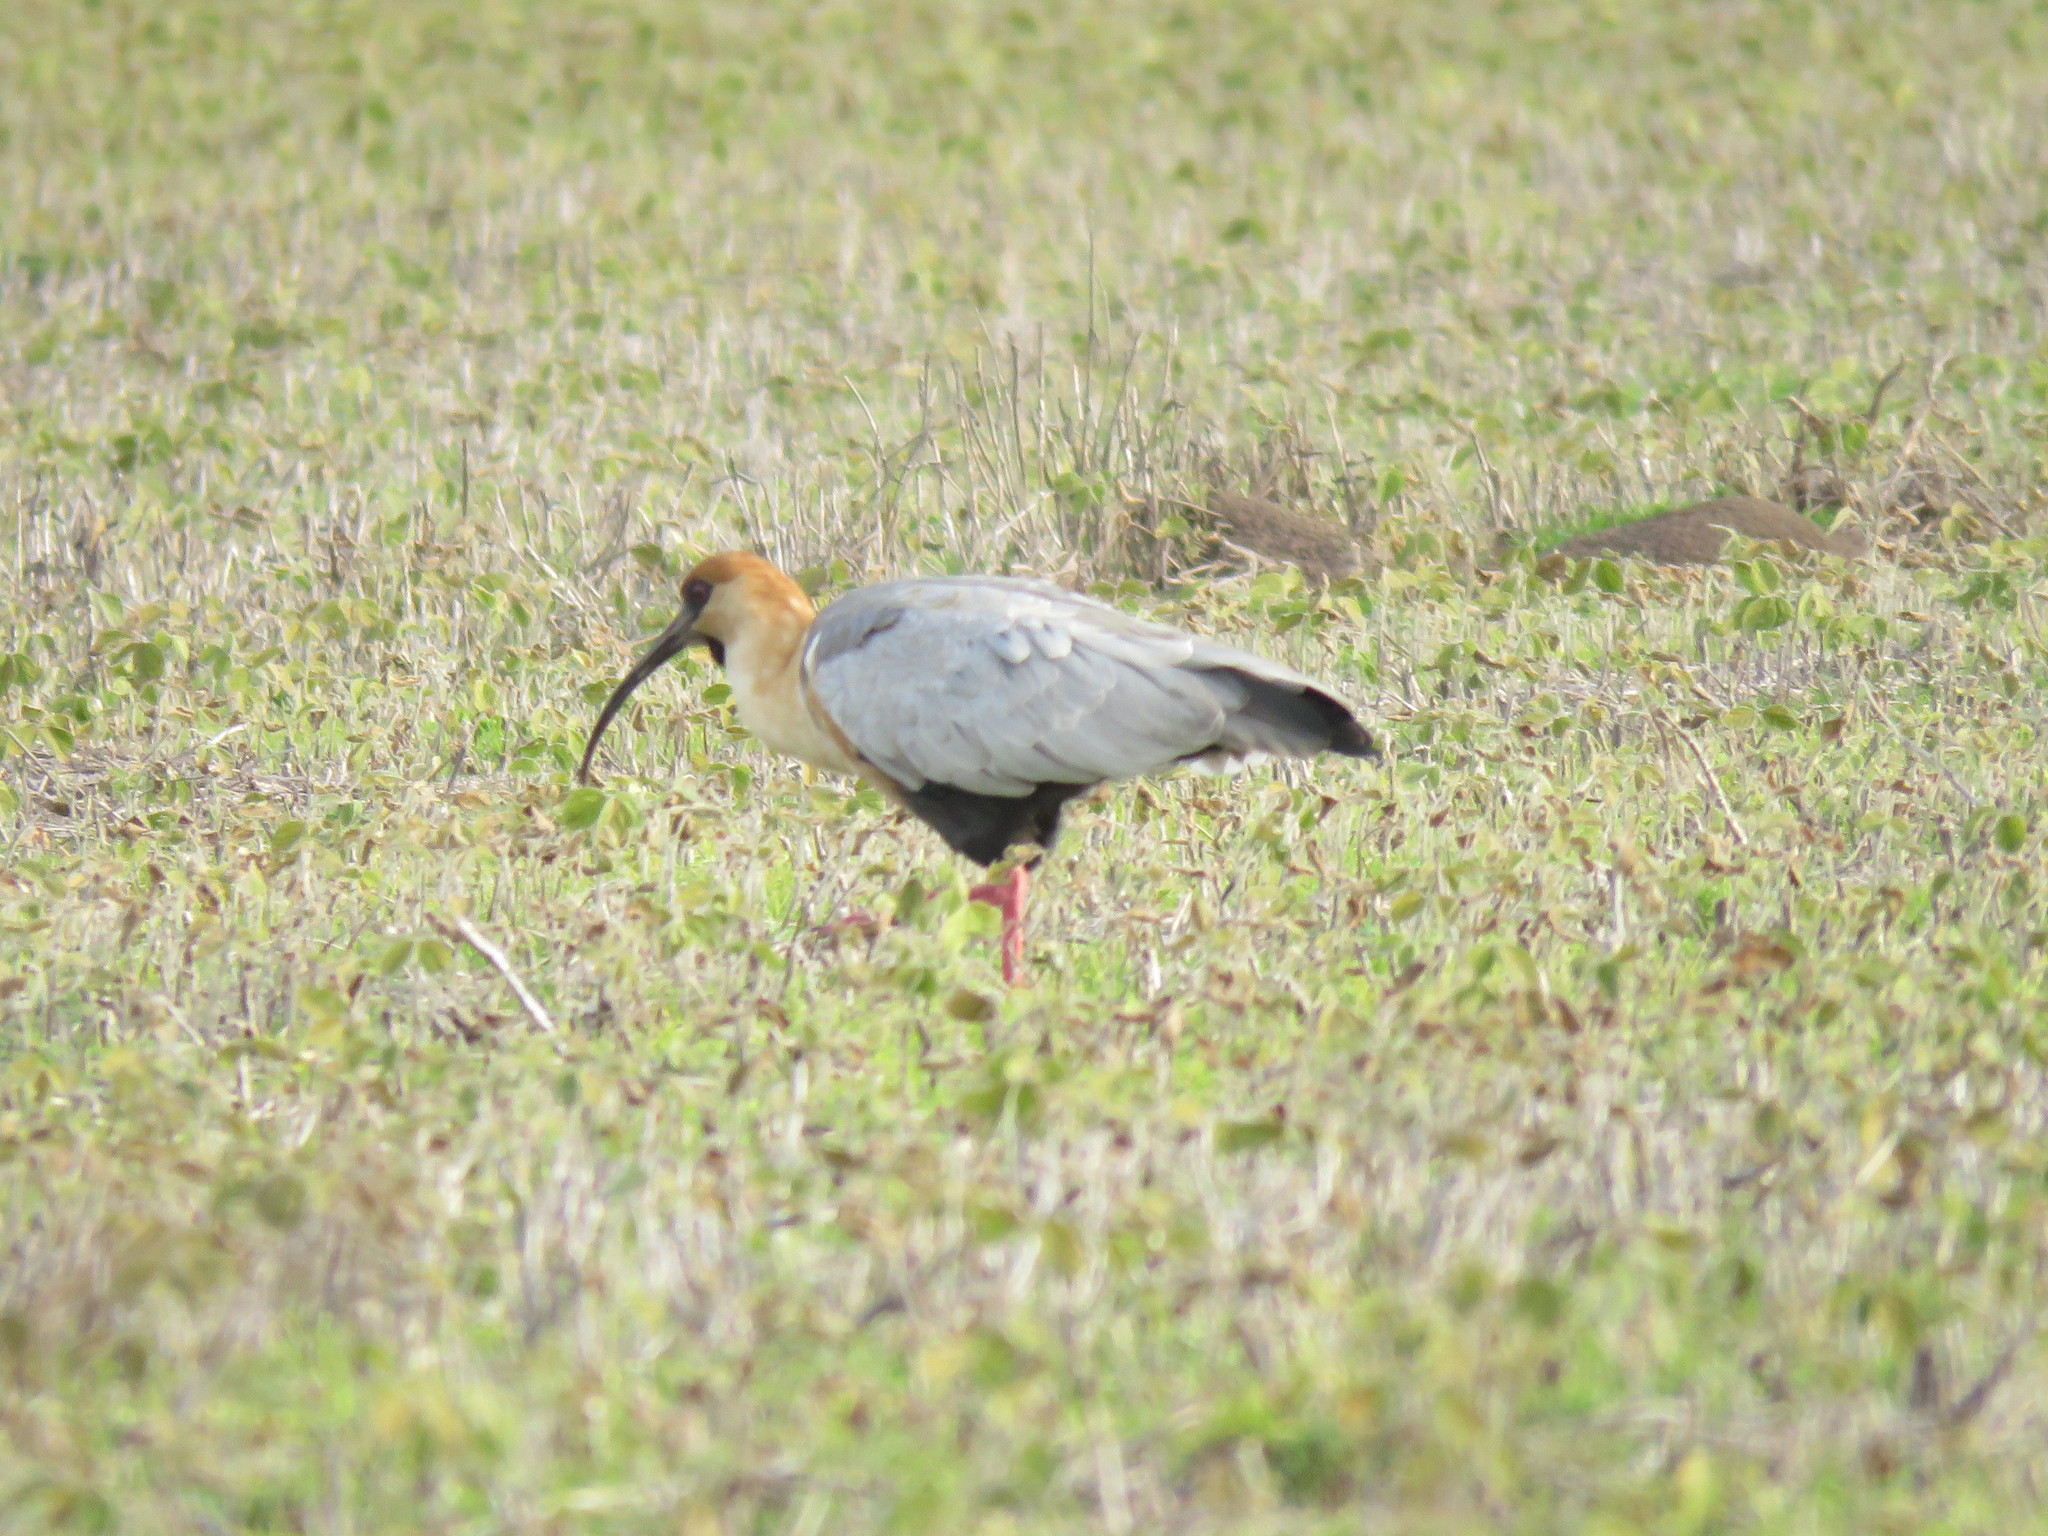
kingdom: Animalia
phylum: Chordata
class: Aves
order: Pelecaniformes
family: Threskiornithidae
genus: Theristicus
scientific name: Theristicus melanopis
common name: Black-faced ibis
